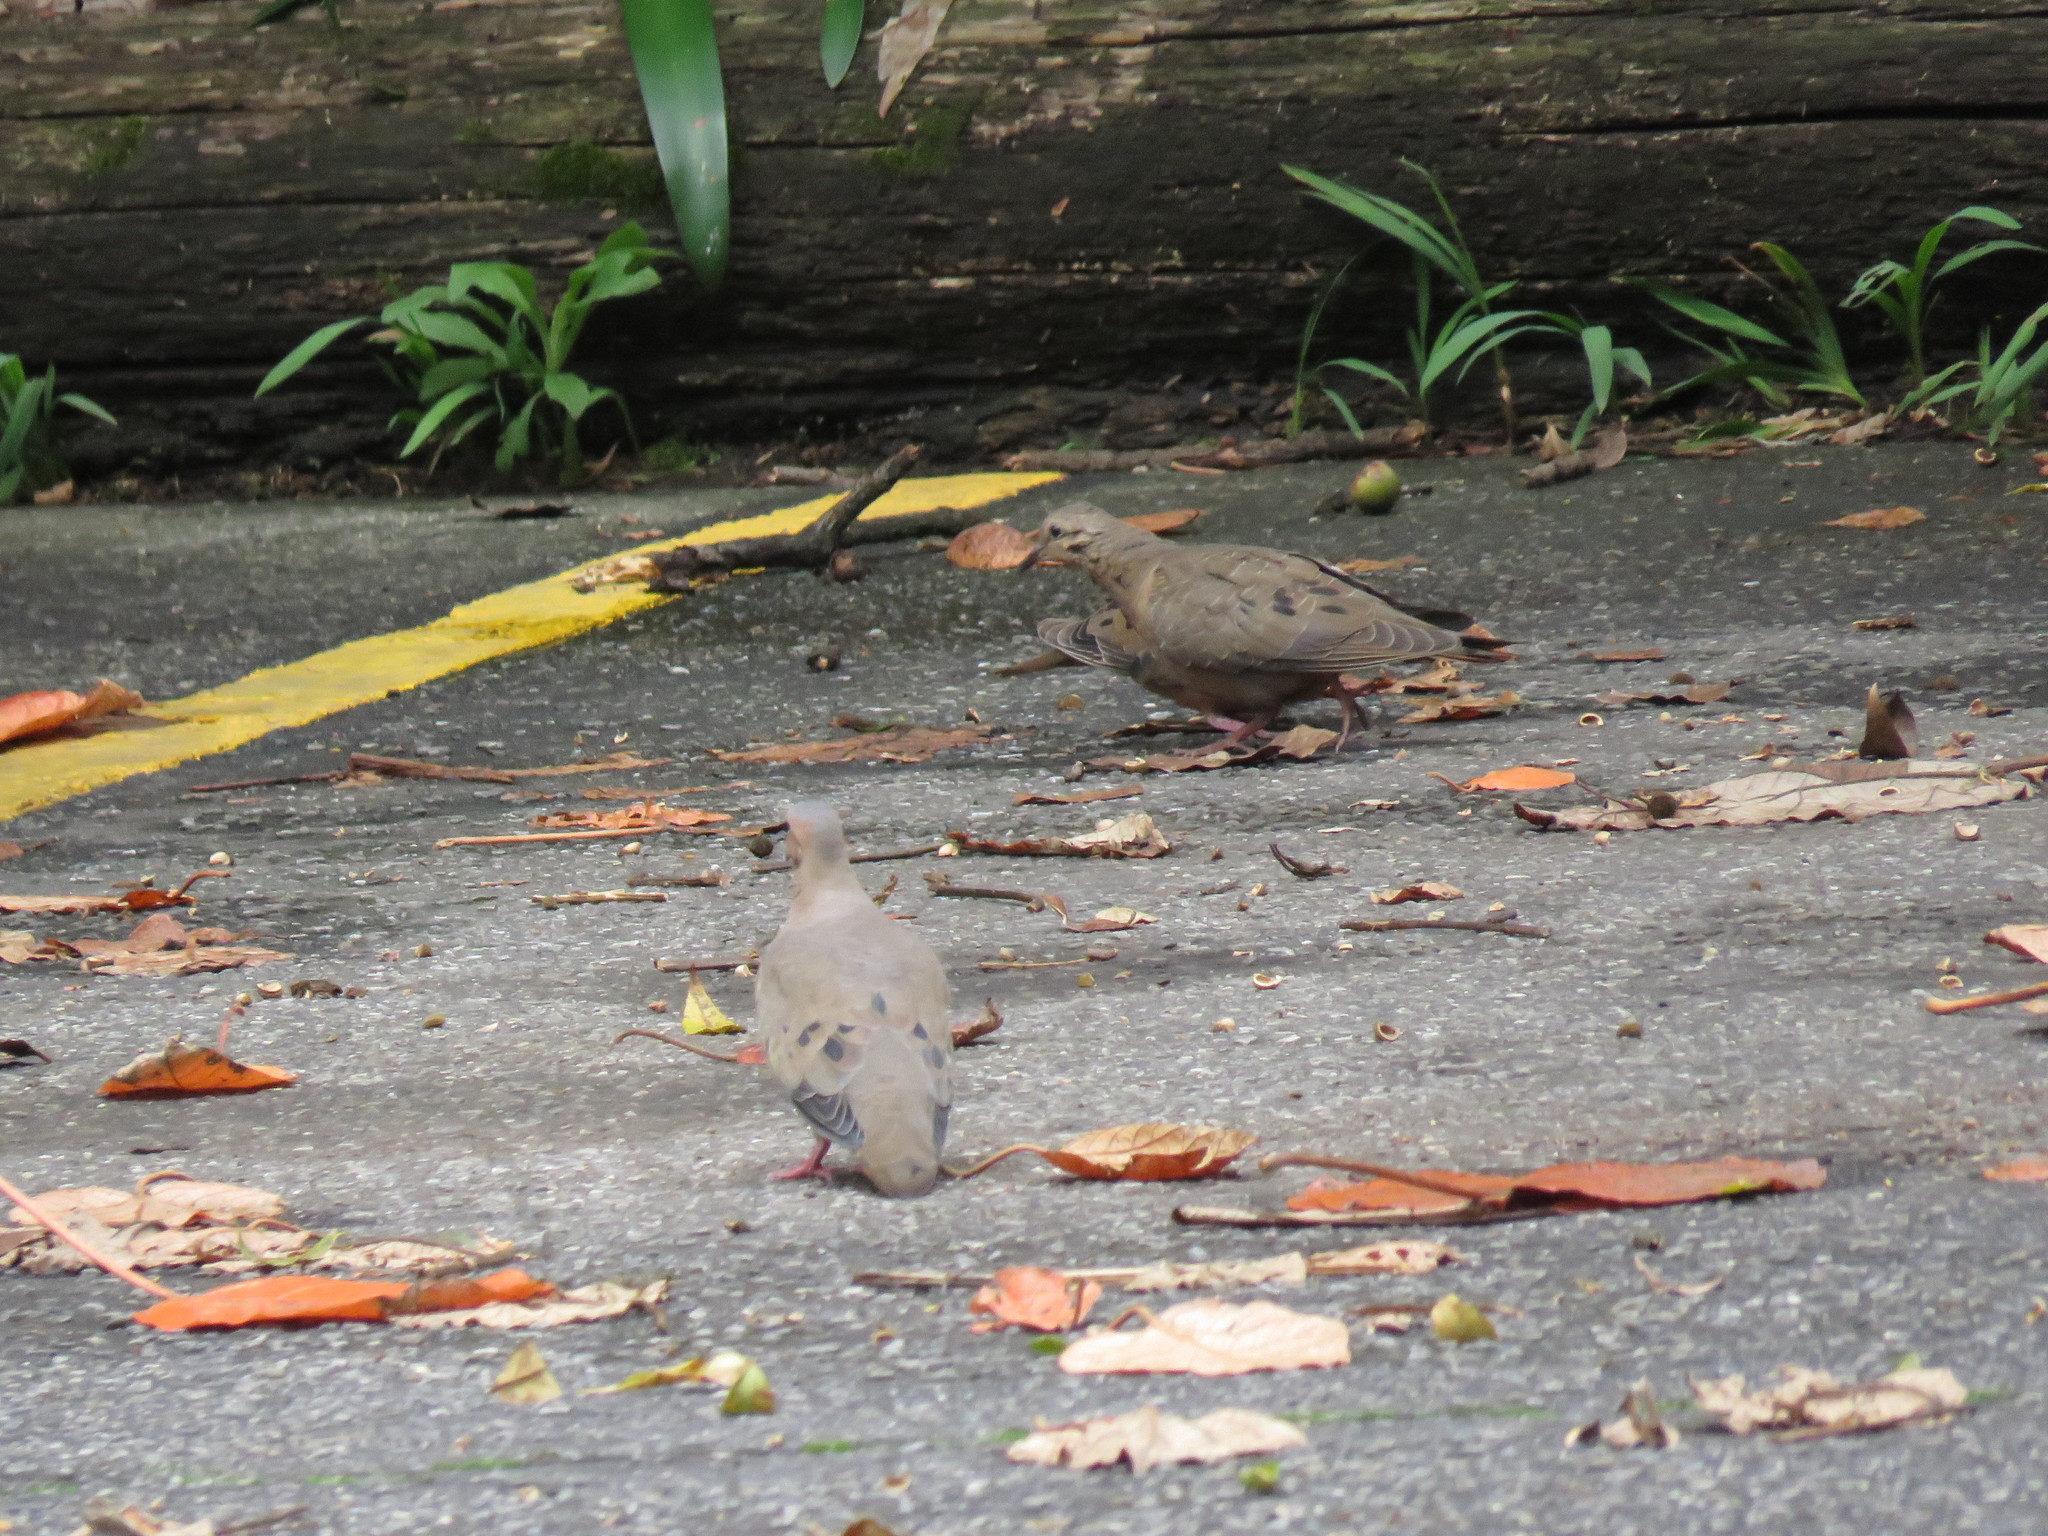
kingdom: Animalia
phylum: Chordata
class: Aves
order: Columbiformes
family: Columbidae
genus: Zenaida
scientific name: Zenaida auriculata
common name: Eared dove
